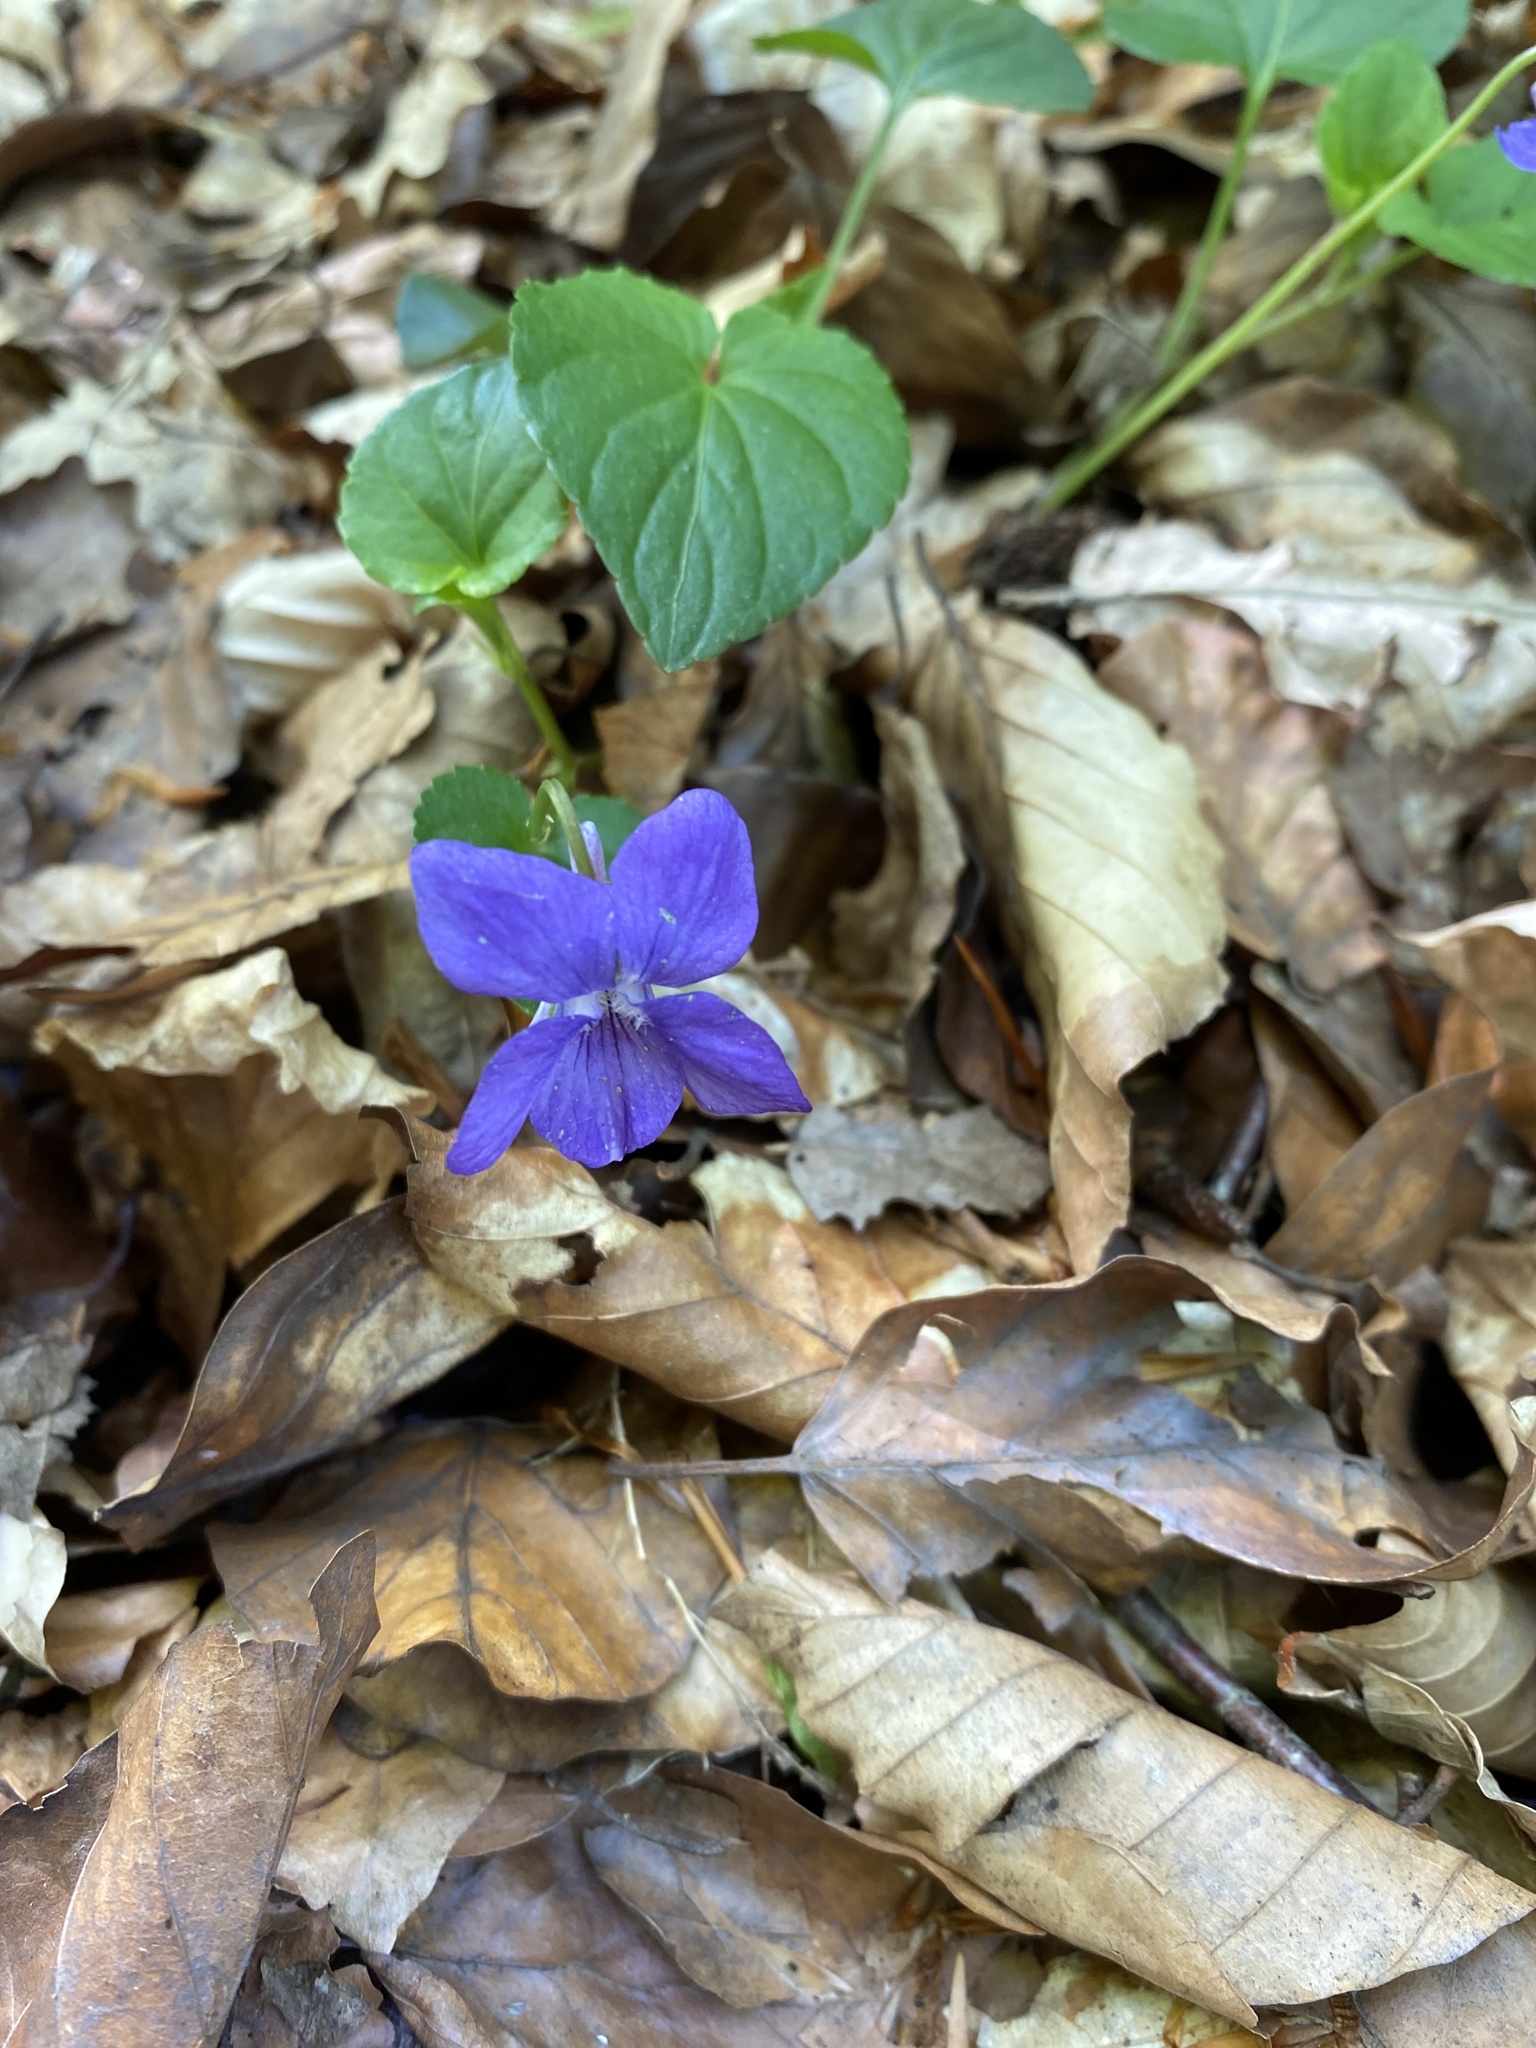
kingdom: Plantae
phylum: Tracheophyta
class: Magnoliopsida
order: Malpighiales
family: Violaceae
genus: Viola
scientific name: Viola riviniana
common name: Common dog-violet
